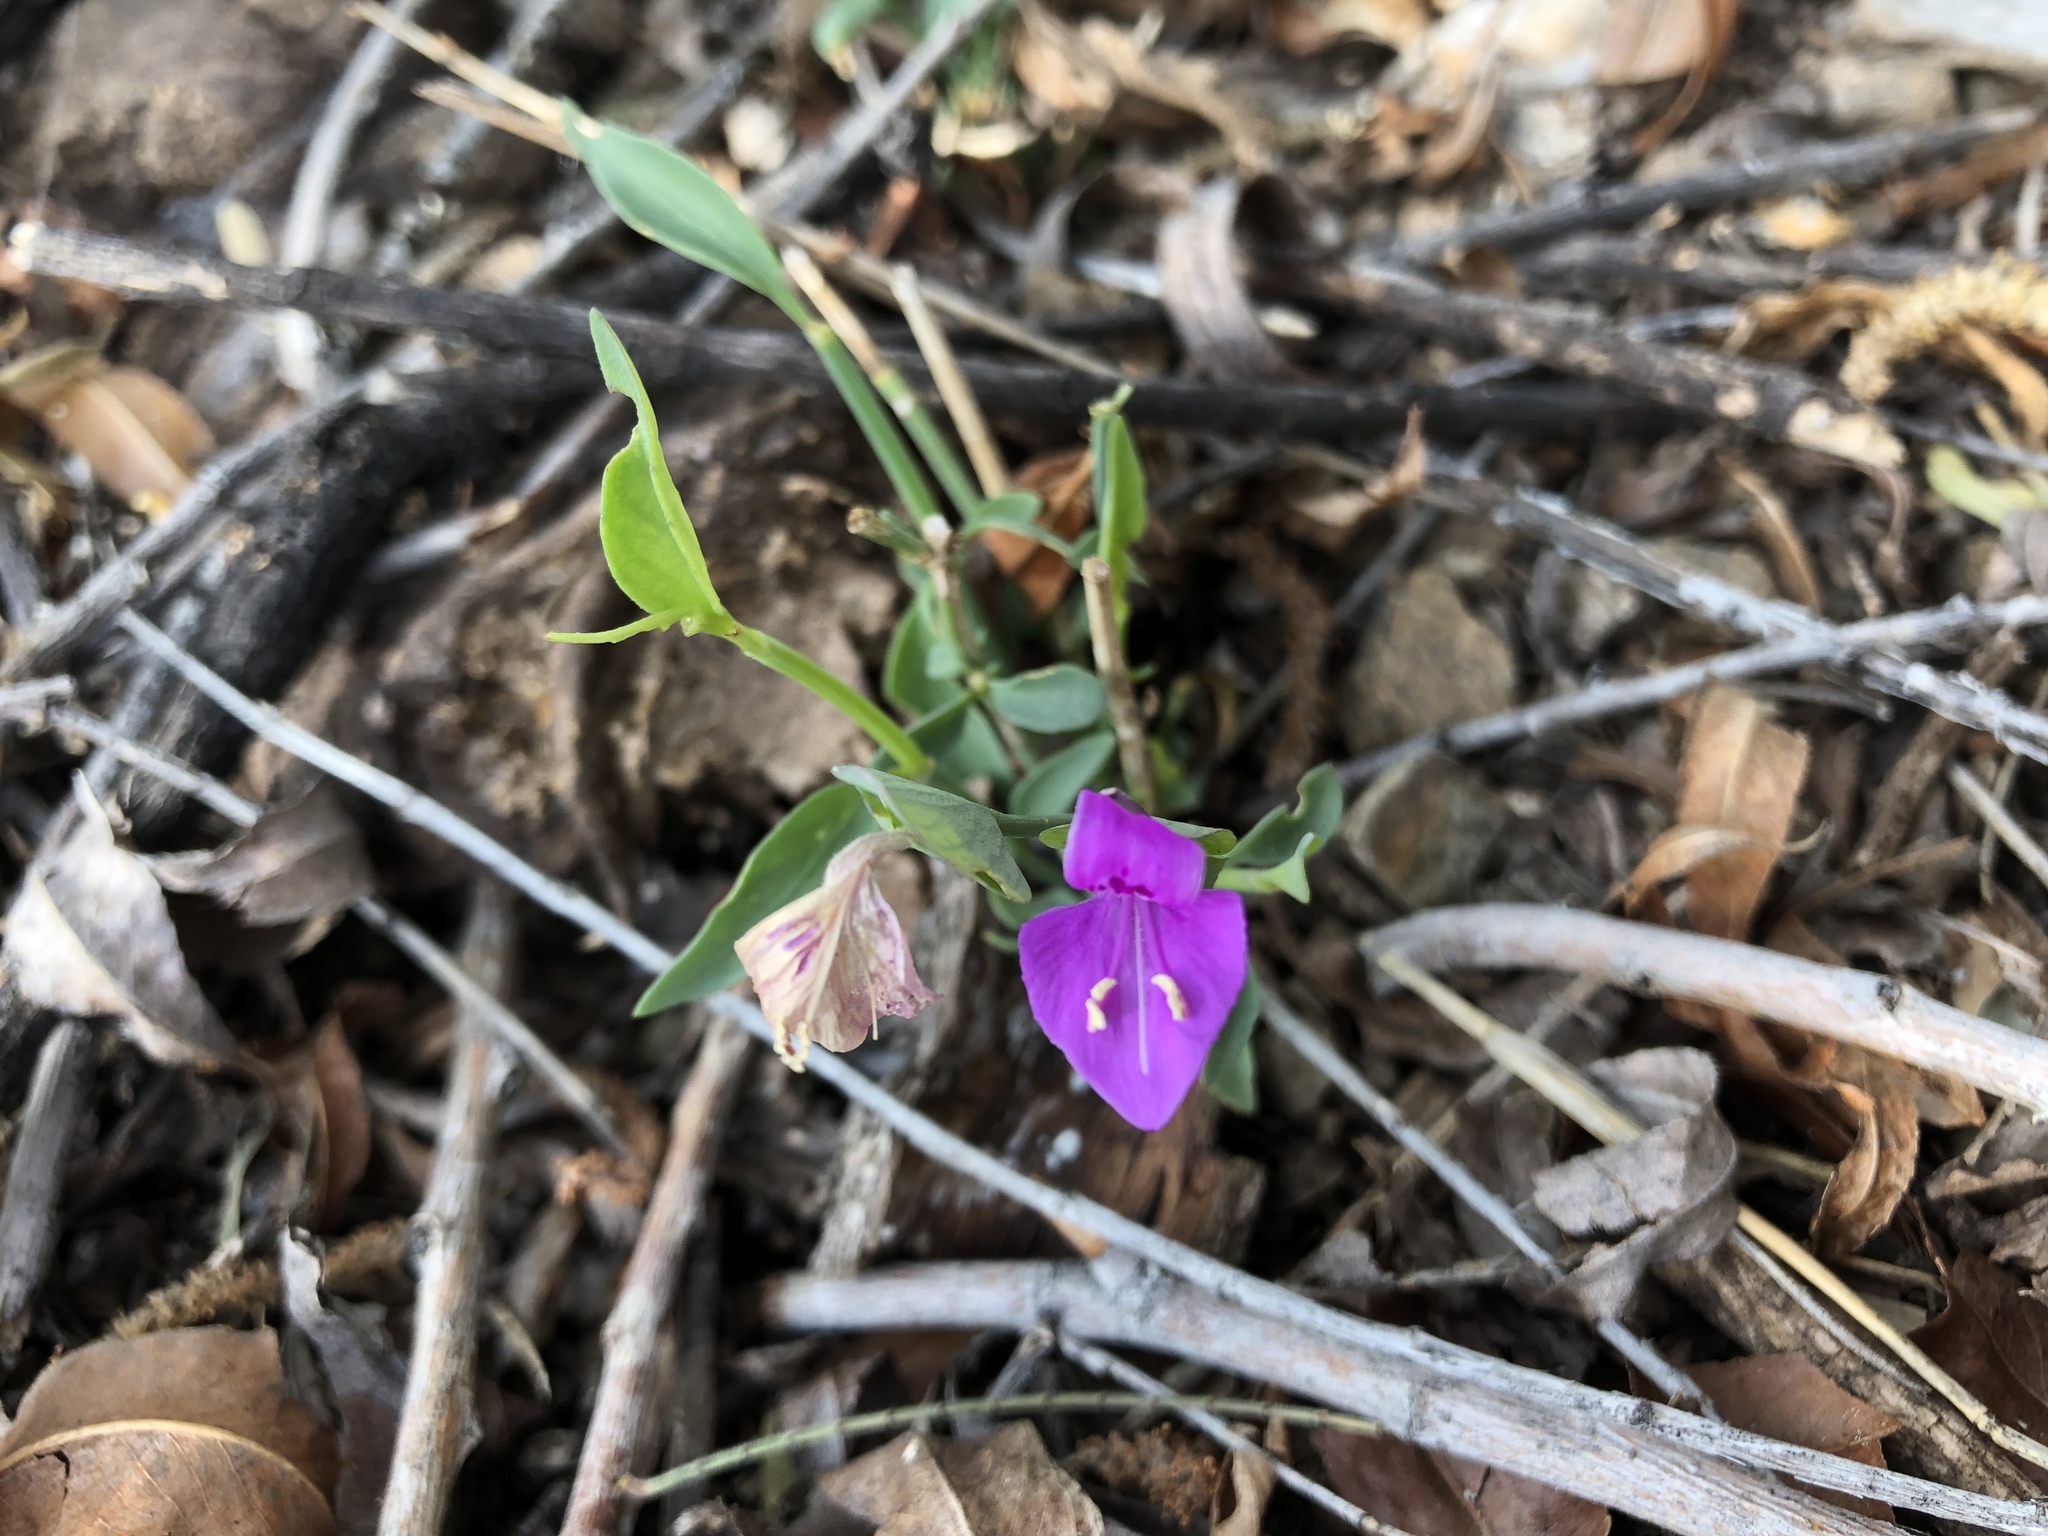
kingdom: Plantae
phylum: Tracheophyta
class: Magnoliopsida
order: Lamiales
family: Acanthaceae
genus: Dicliptera
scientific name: Dicliptera resupinata
